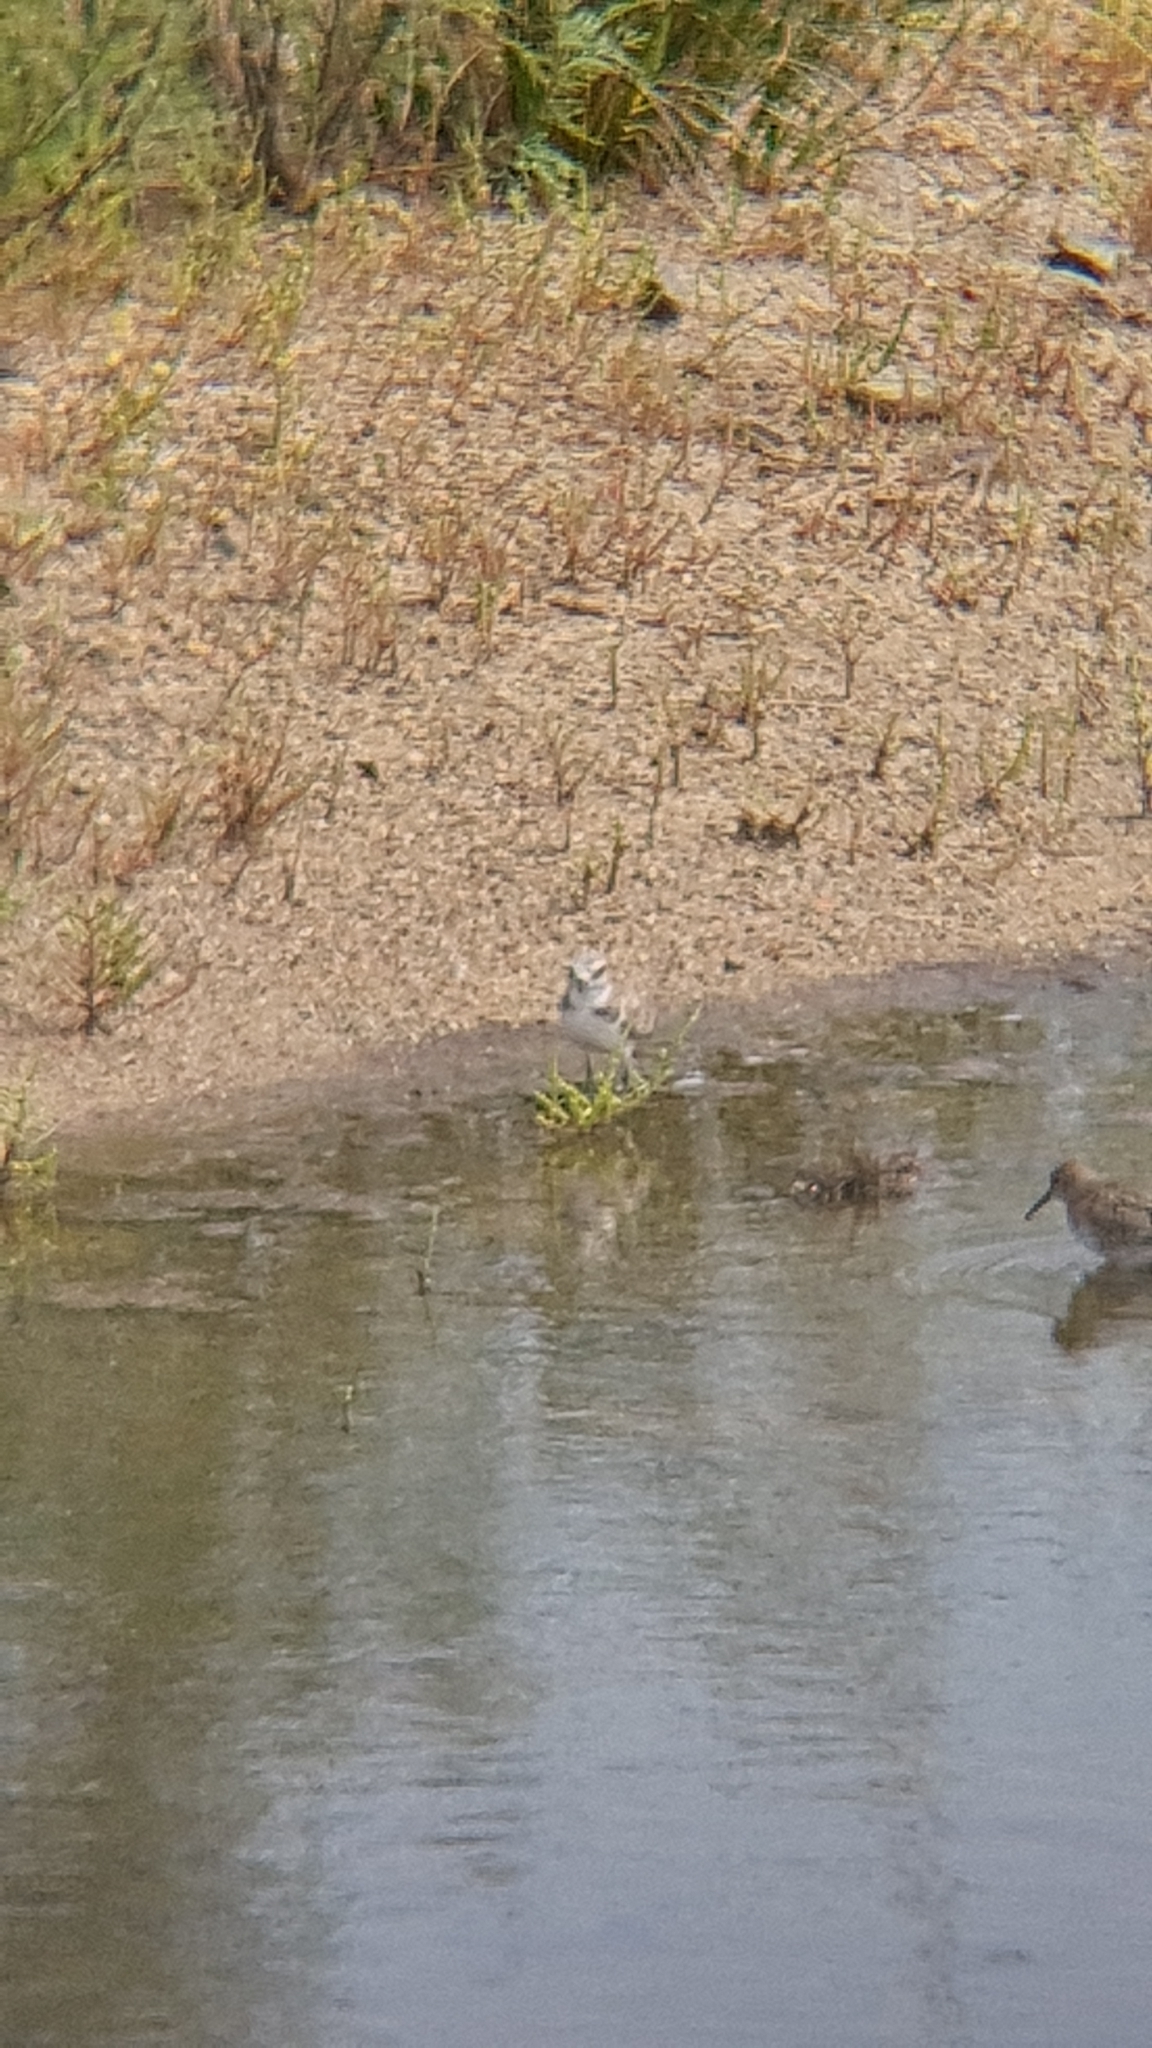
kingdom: Animalia
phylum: Chordata
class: Aves
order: Charadriiformes
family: Charadriidae
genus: Charadrius
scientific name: Charadrius alexandrinus
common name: Kentish plover
